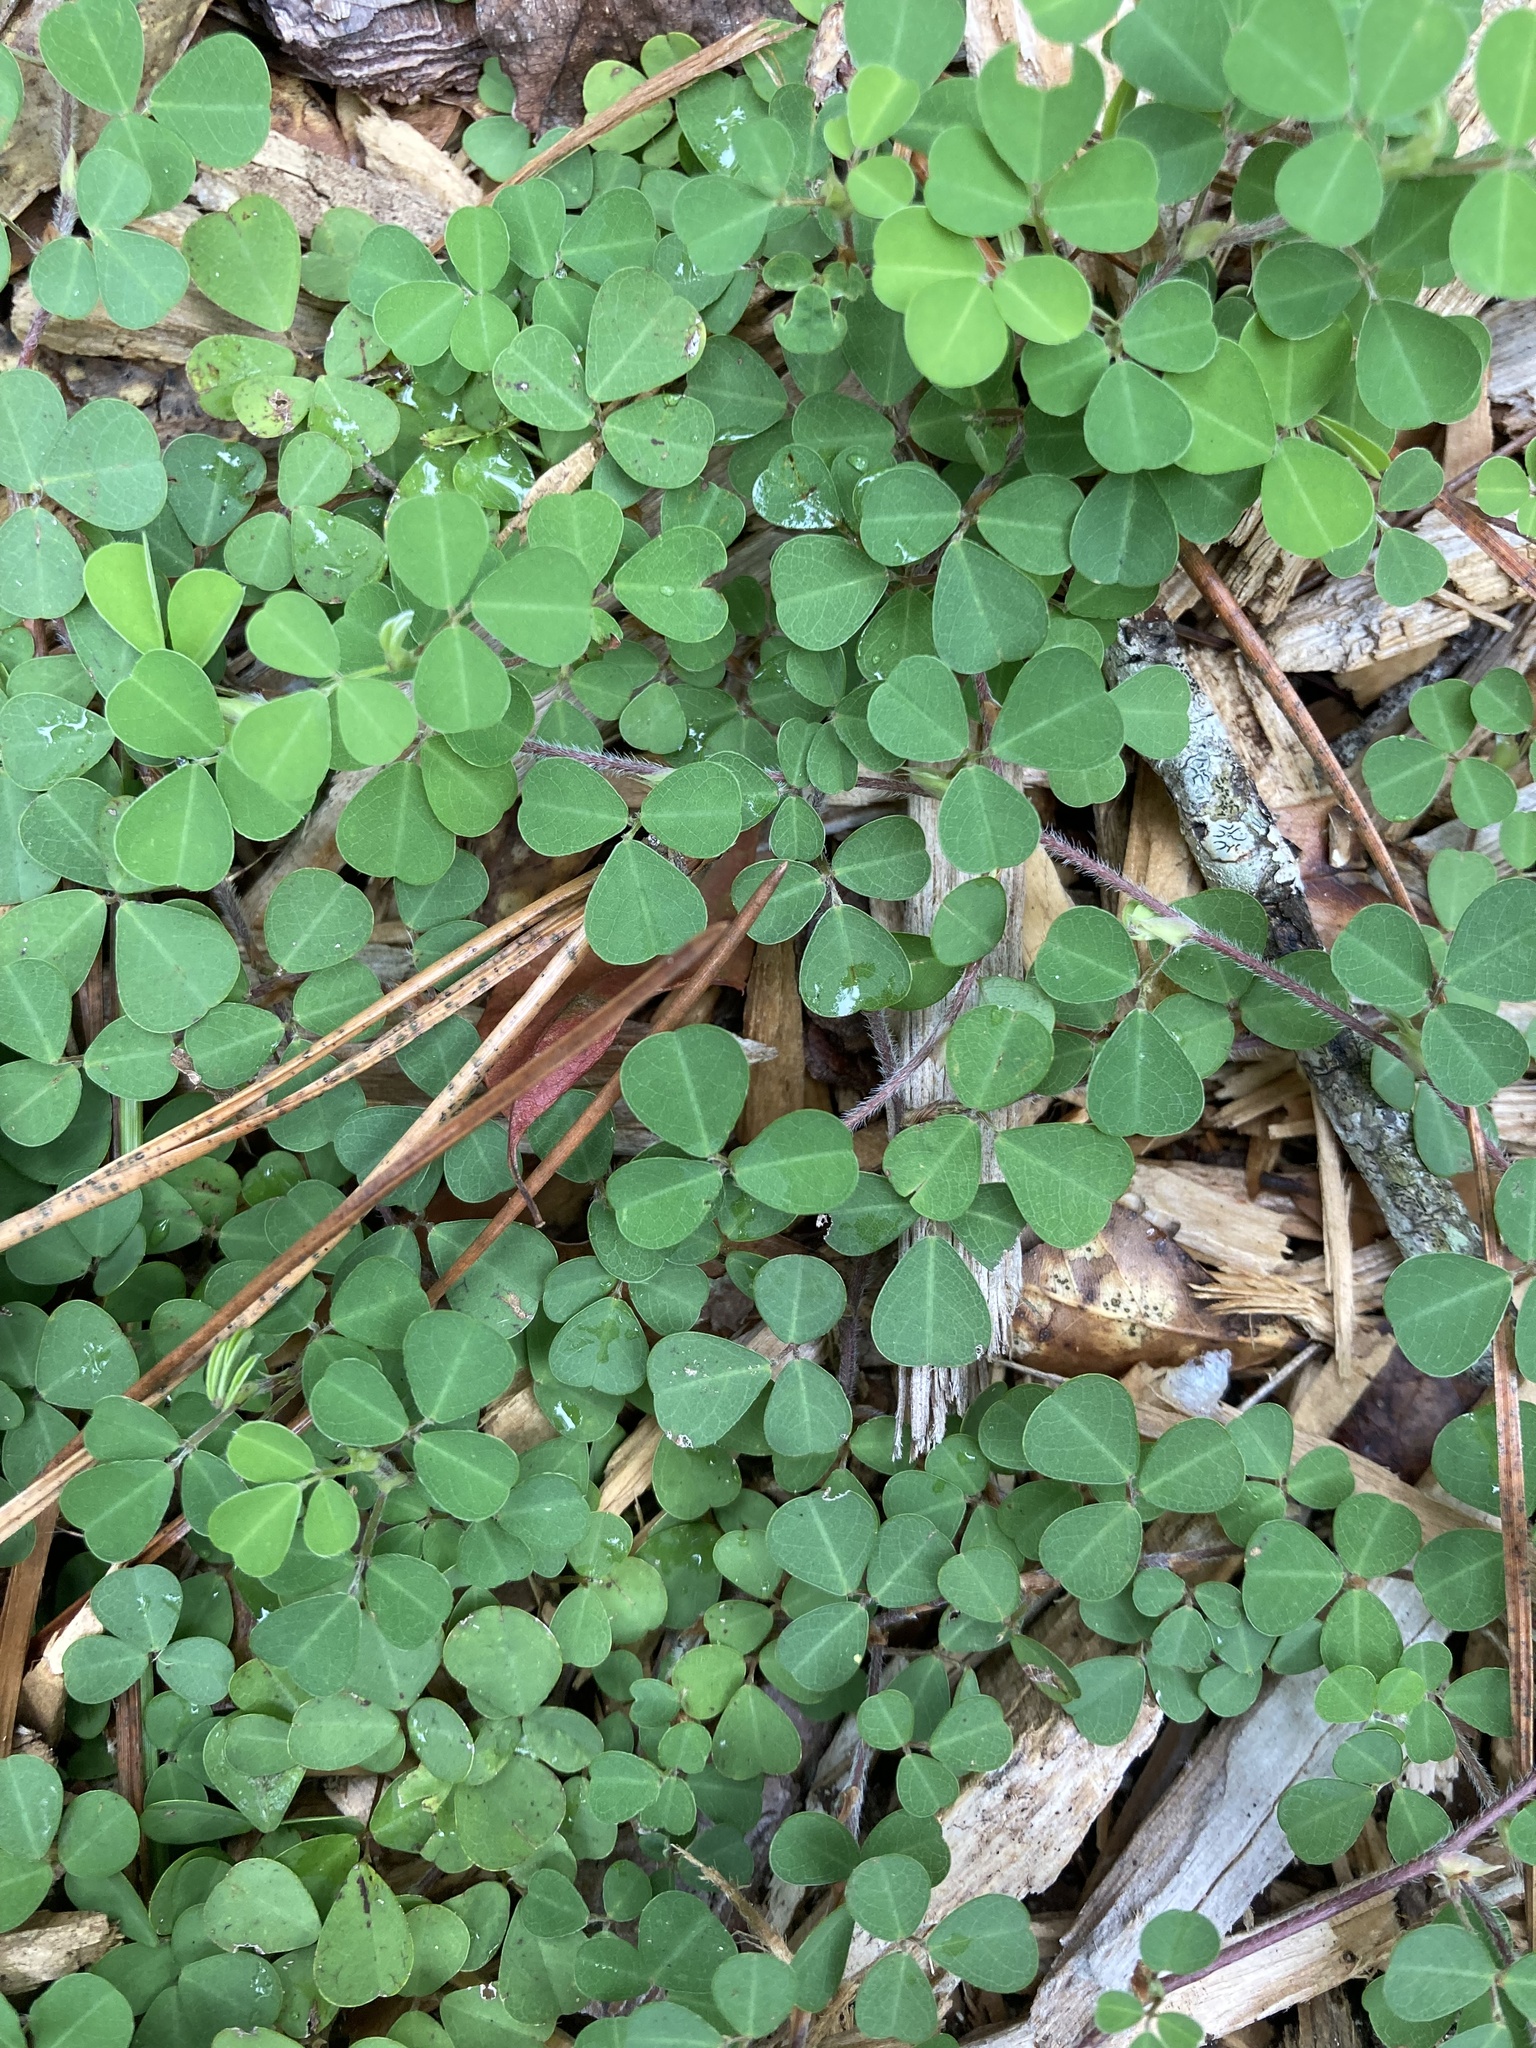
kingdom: Plantae
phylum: Tracheophyta
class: Magnoliopsida
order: Fabales
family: Fabaceae
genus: Grona
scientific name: Grona triflora
